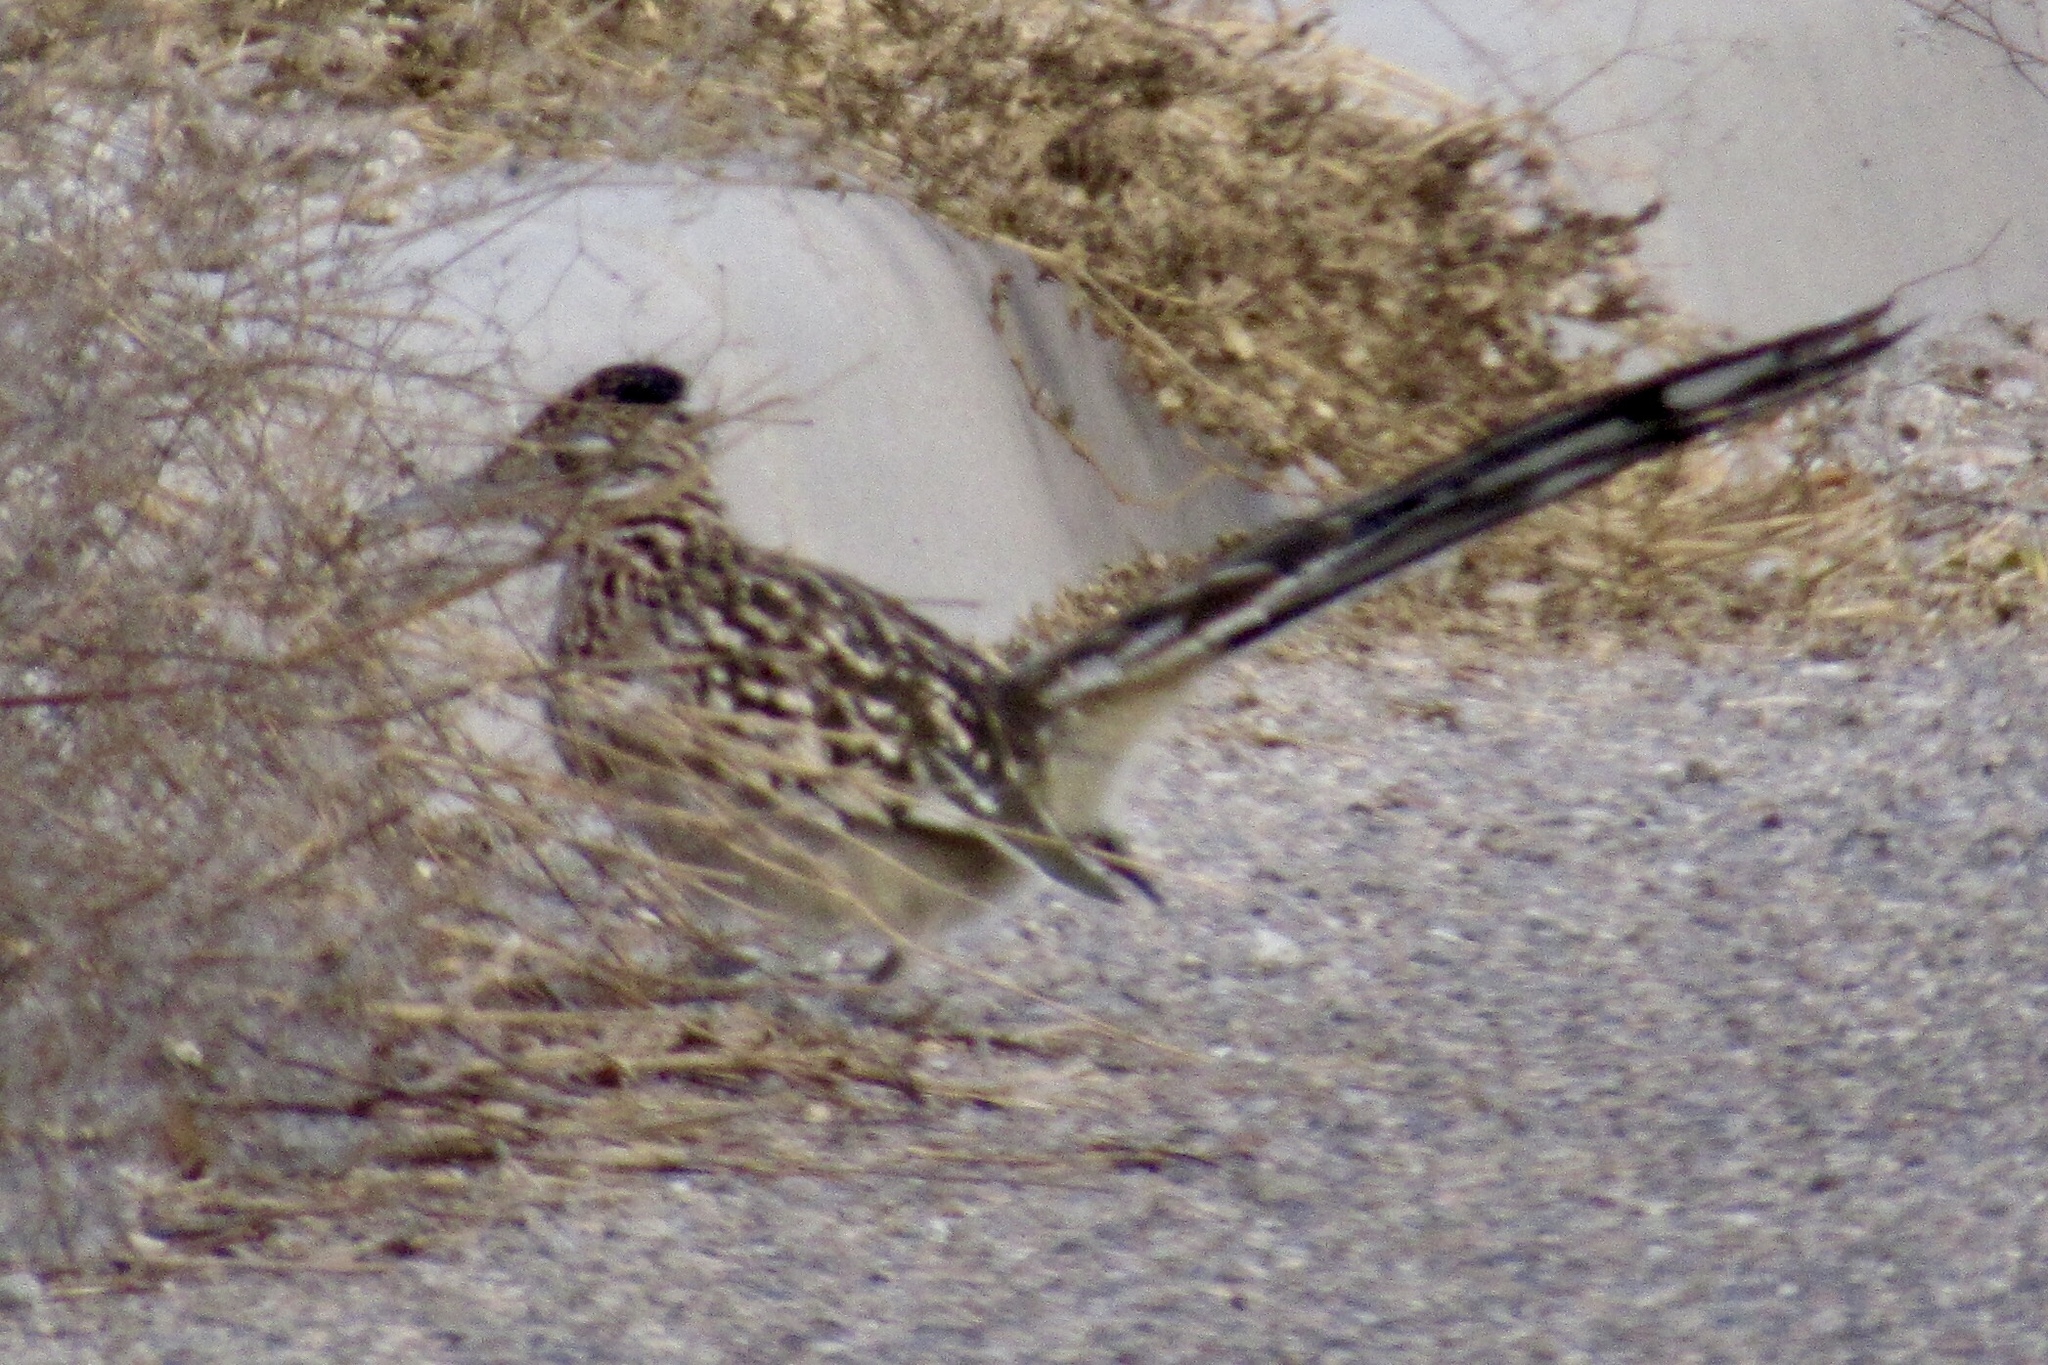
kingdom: Animalia
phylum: Chordata
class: Aves
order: Cuculiformes
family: Cuculidae
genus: Geococcyx
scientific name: Geococcyx californianus
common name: Greater roadrunner
